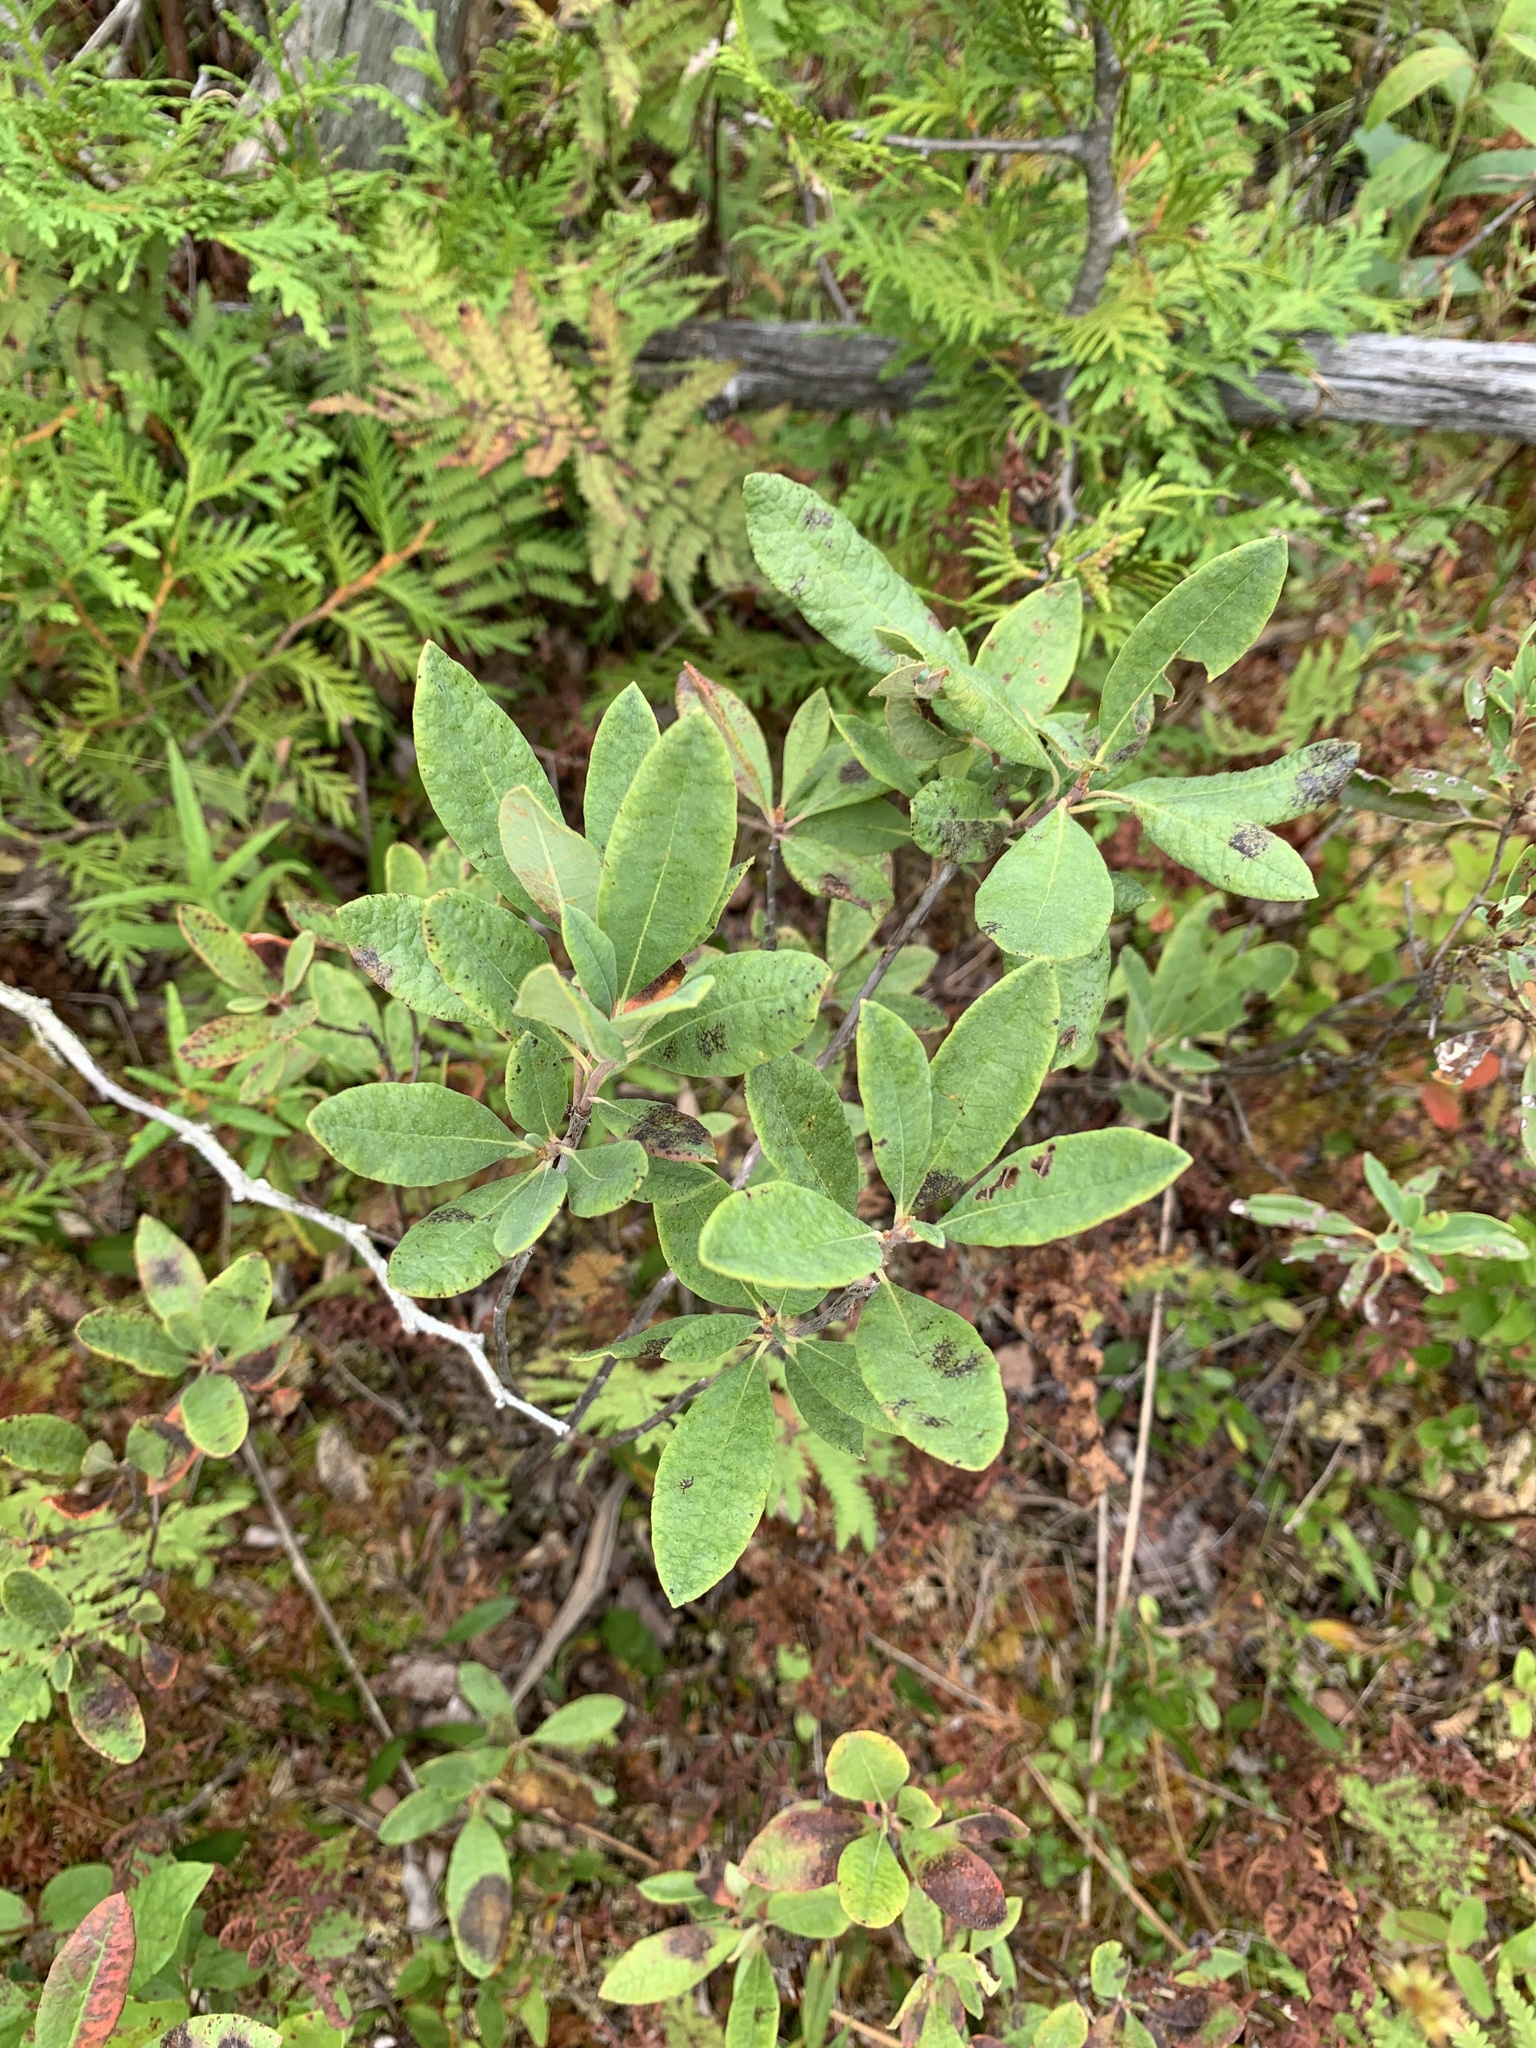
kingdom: Plantae
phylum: Tracheophyta
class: Magnoliopsida
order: Ericales
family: Ericaceae
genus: Kalmia
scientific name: Kalmia angustifolia
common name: Sheep-laurel
